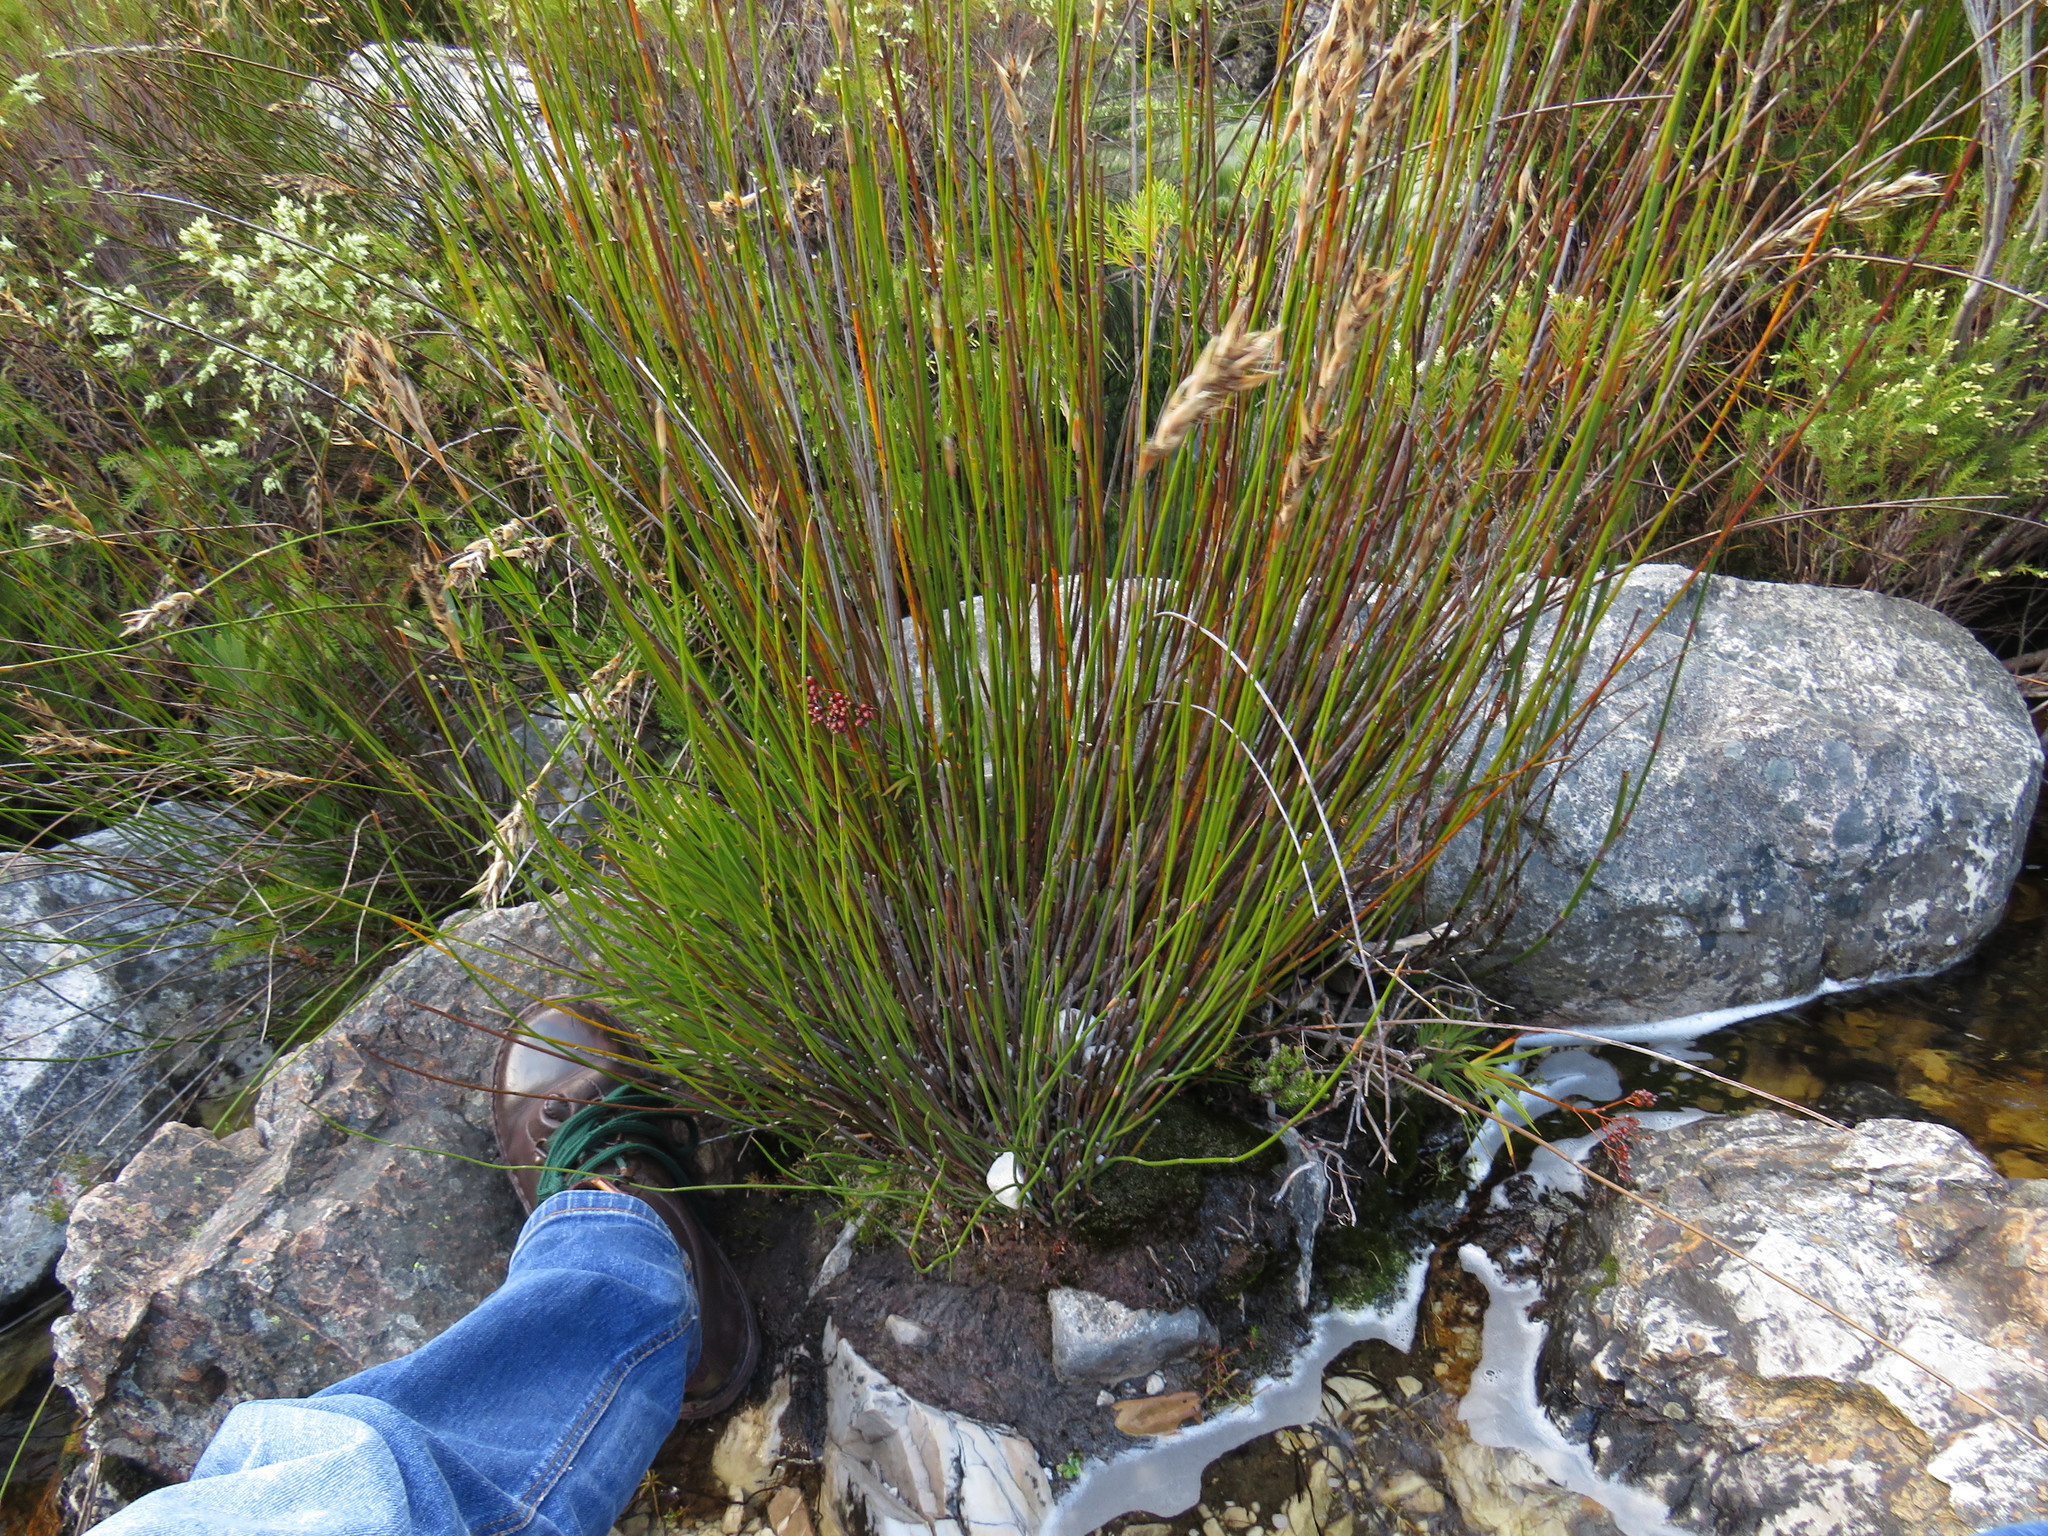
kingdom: Plantae
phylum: Tracheophyta
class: Liliopsida
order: Asparagales
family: Iridaceae
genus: Nivenia
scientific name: Nivenia corymbosa
